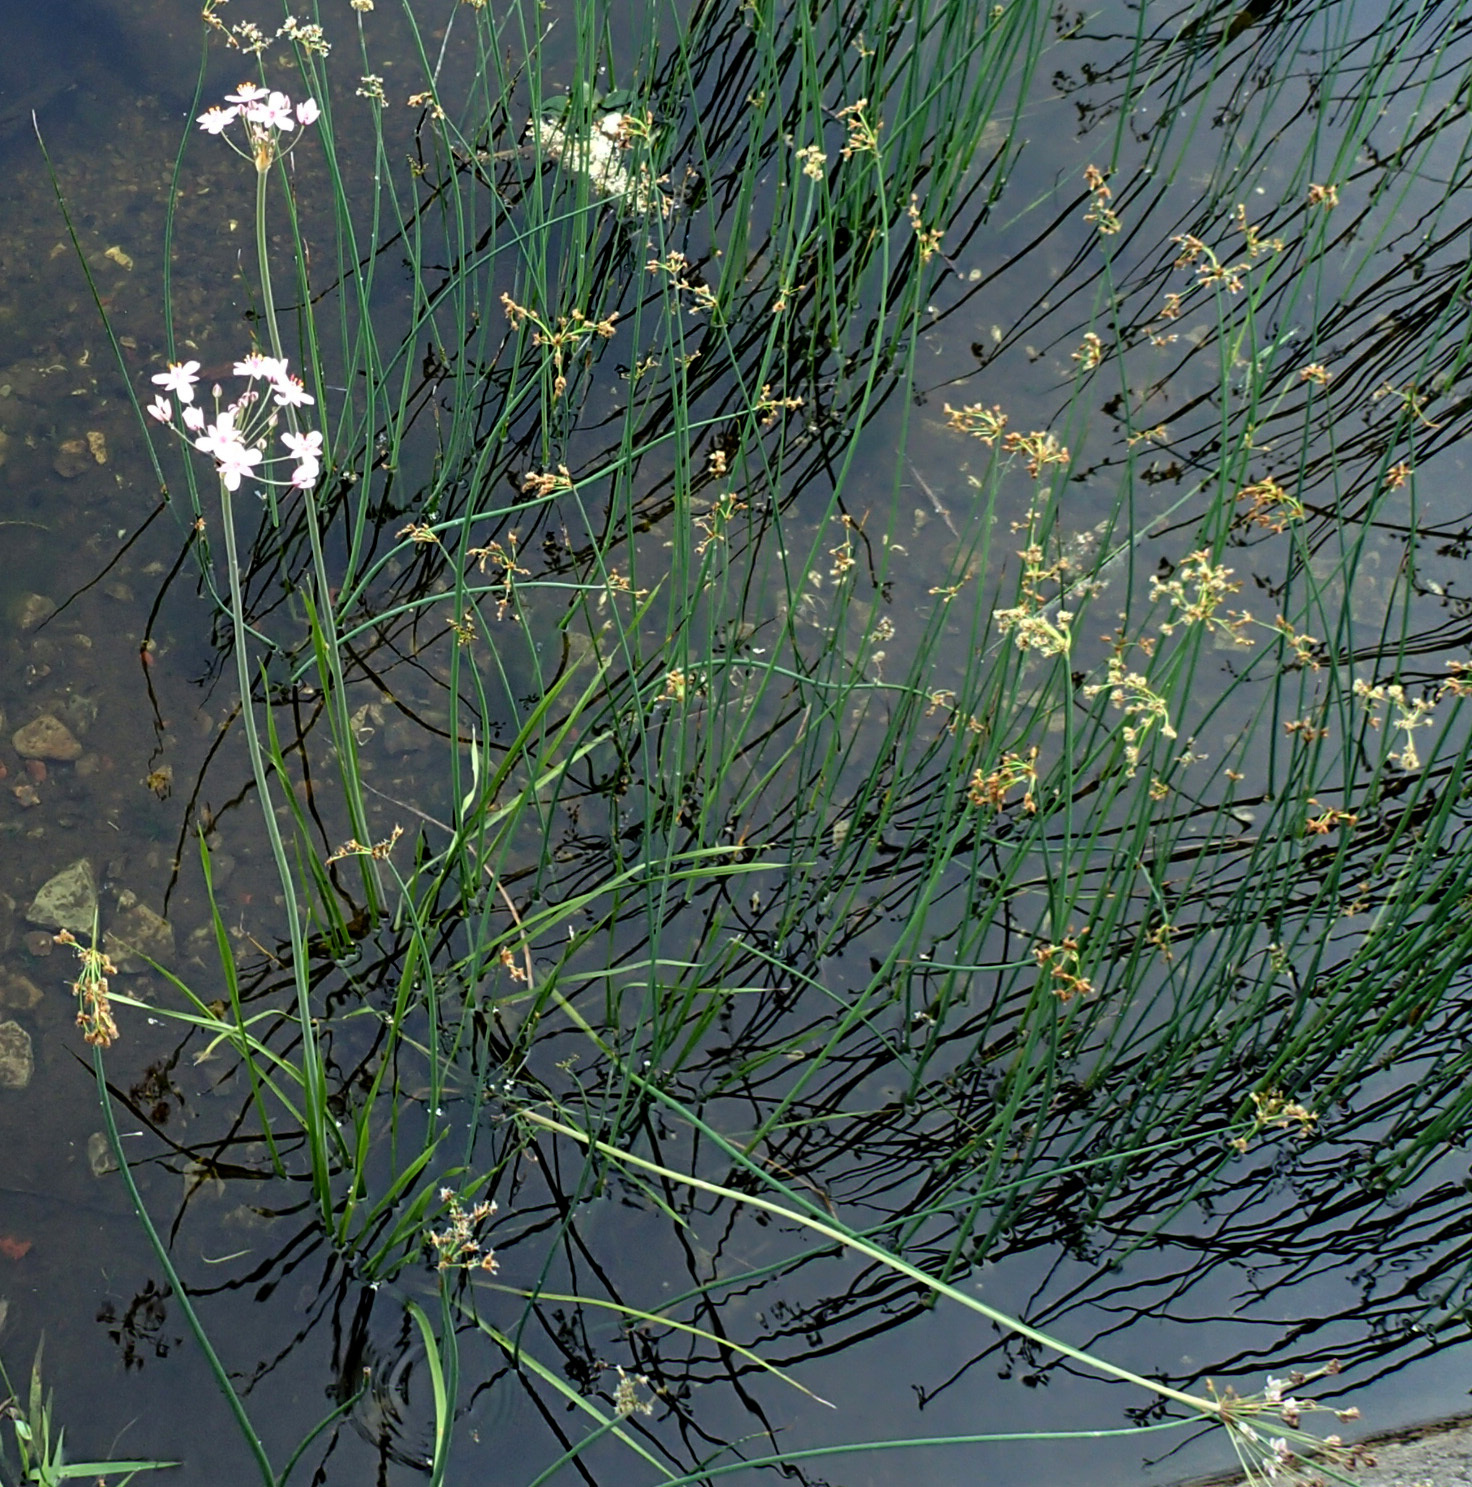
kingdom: Plantae
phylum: Tracheophyta
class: Liliopsida
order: Alismatales
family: Butomaceae
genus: Butomus
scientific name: Butomus umbellatus
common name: Flowering-rush
